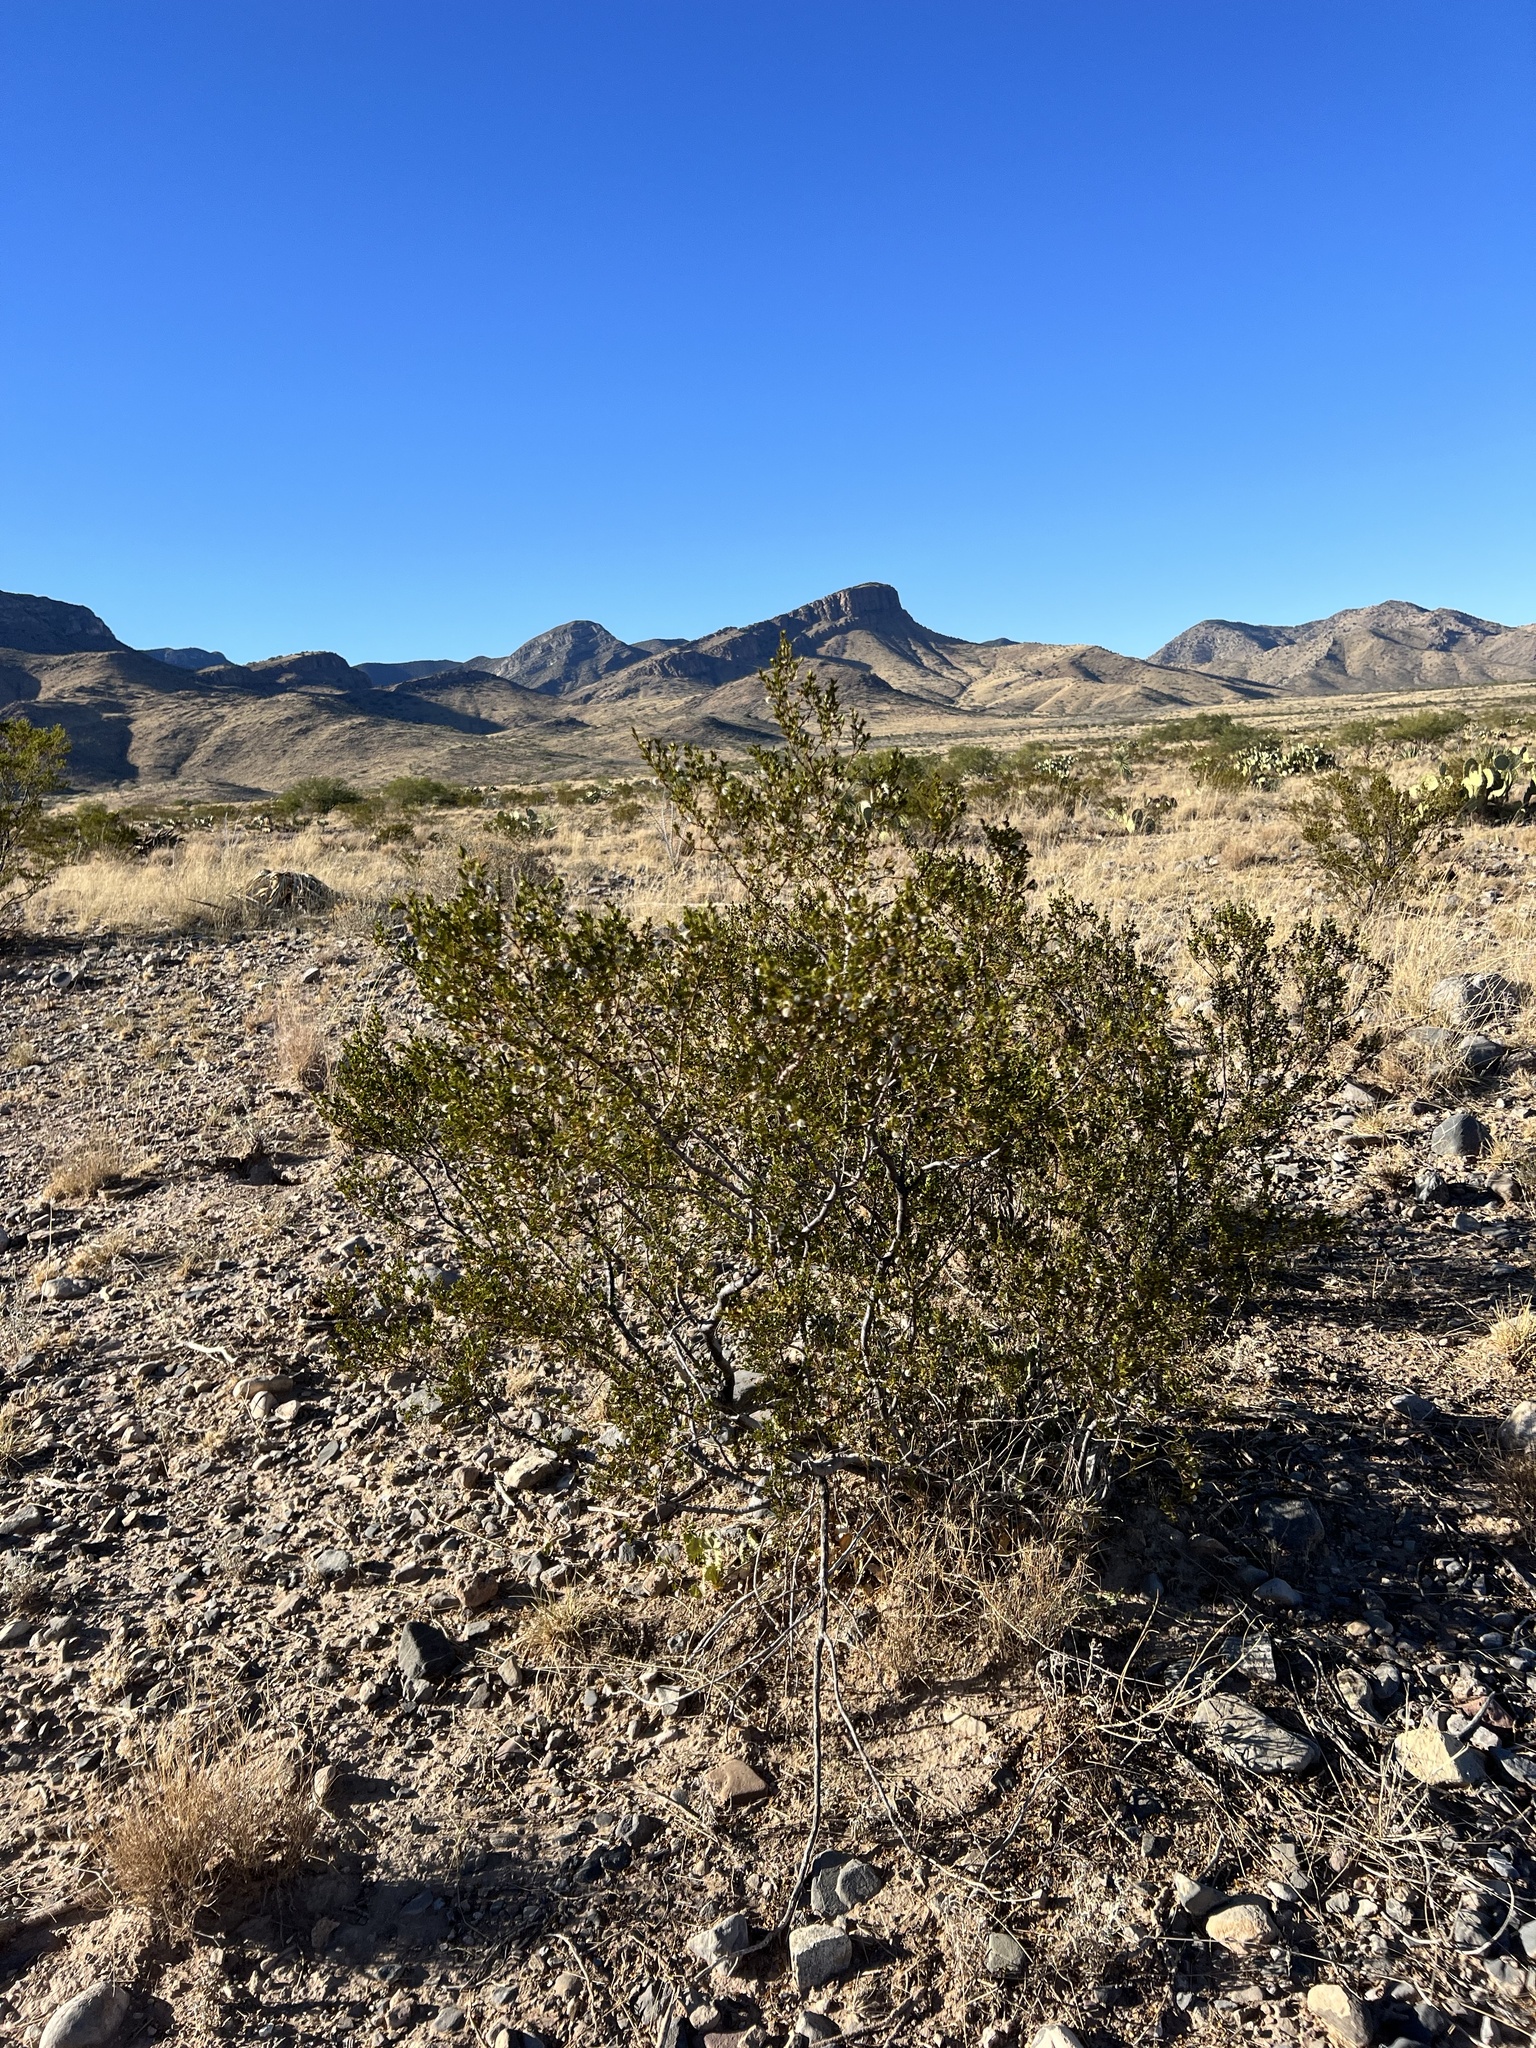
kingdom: Plantae
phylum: Tracheophyta
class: Magnoliopsida
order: Zygophyllales
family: Zygophyllaceae
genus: Larrea
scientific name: Larrea tridentata
